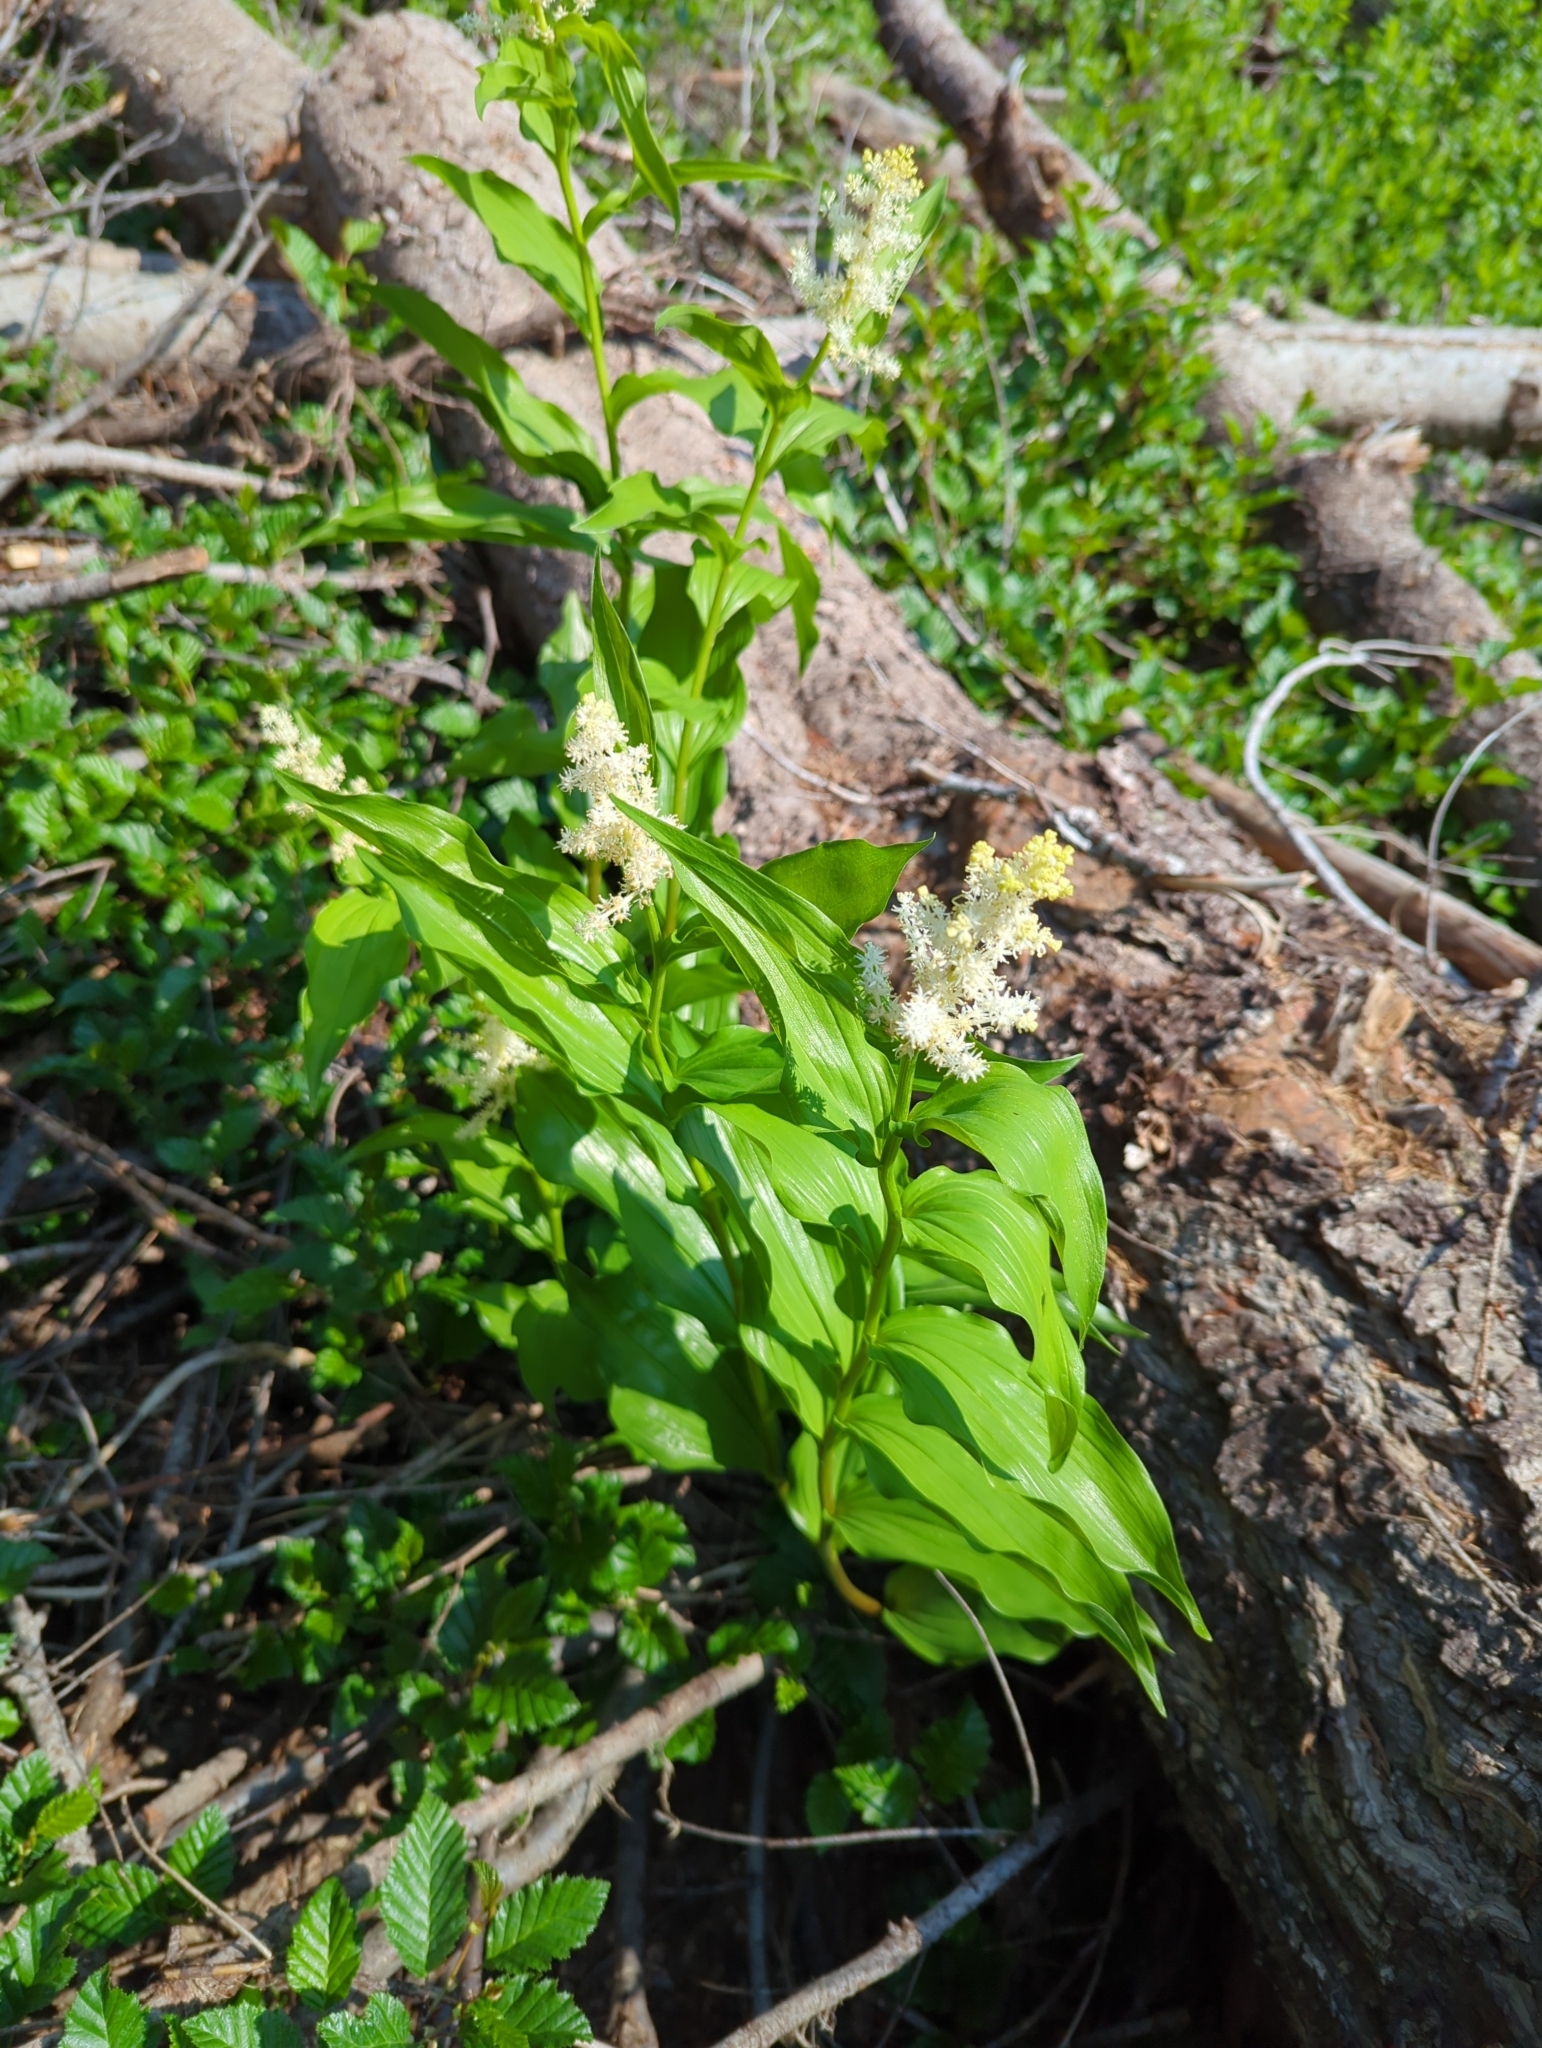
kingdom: Plantae
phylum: Tracheophyta
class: Liliopsida
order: Asparagales
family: Asparagaceae
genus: Maianthemum
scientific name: Maianthemum racemosum
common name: False spikenard
